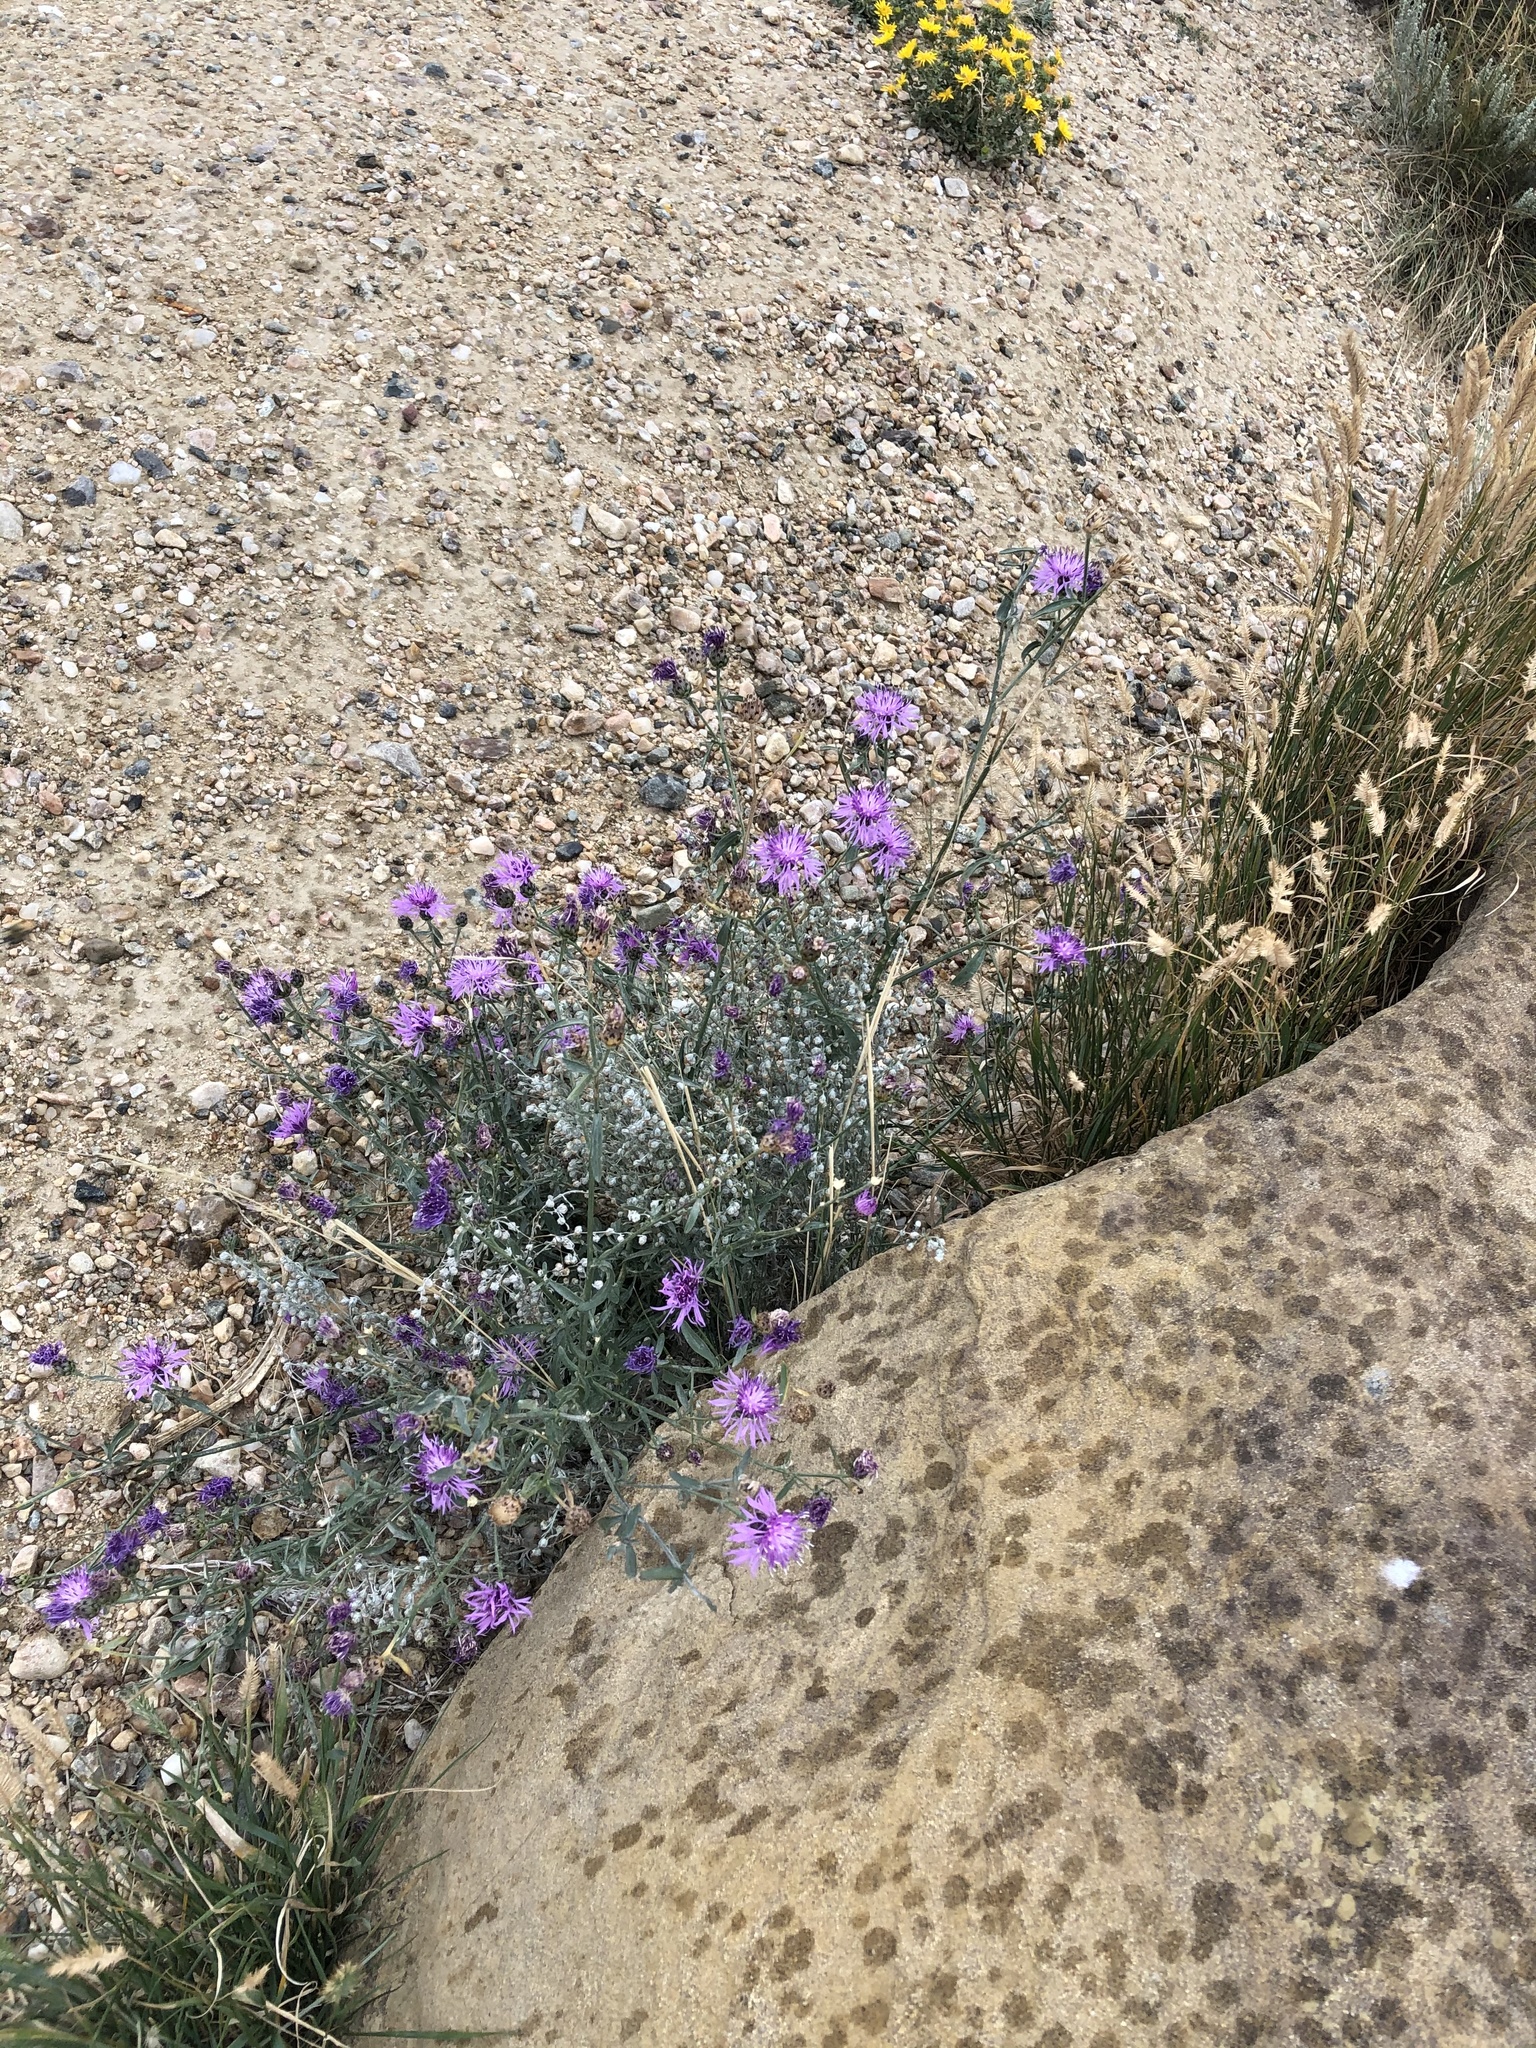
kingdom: Plantae
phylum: Tracheophyta
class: Magnoliopsida
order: Asterales
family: Asteraceae
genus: Centaurea
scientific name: Centaurea stoebe
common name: Spotted knapweed
